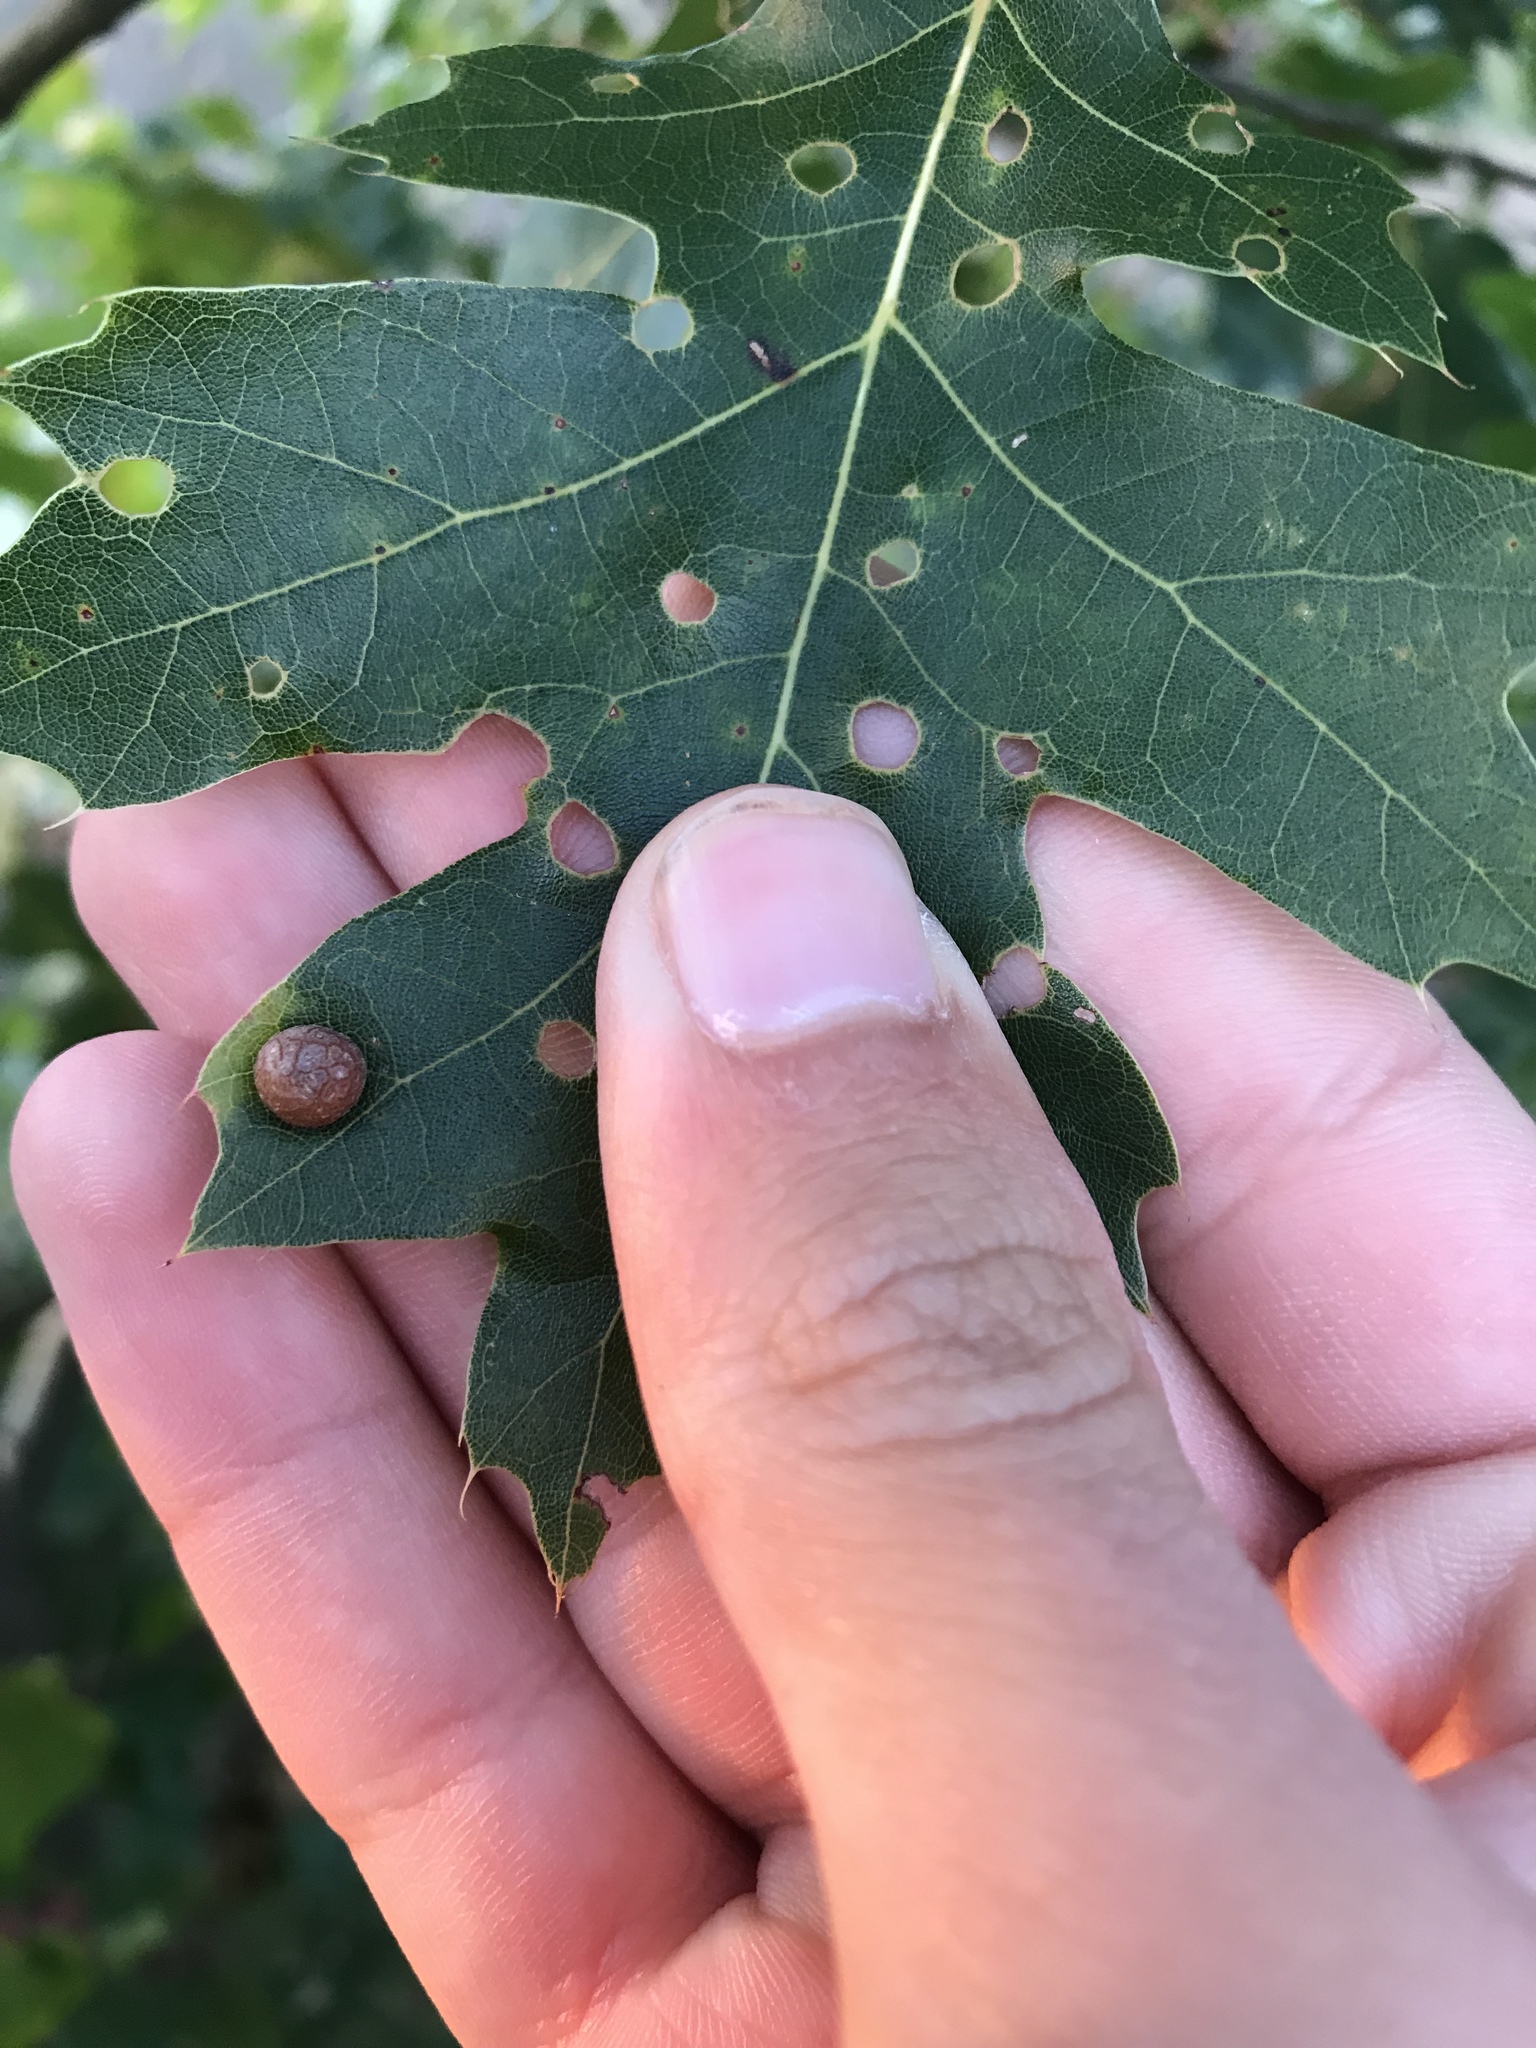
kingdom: Animalia
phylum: Arthropoda
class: Insecta
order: Diptera
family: Cecidomyiidae
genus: Polystepha
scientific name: Polystepha pilulae
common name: Oak leaf gall midge
